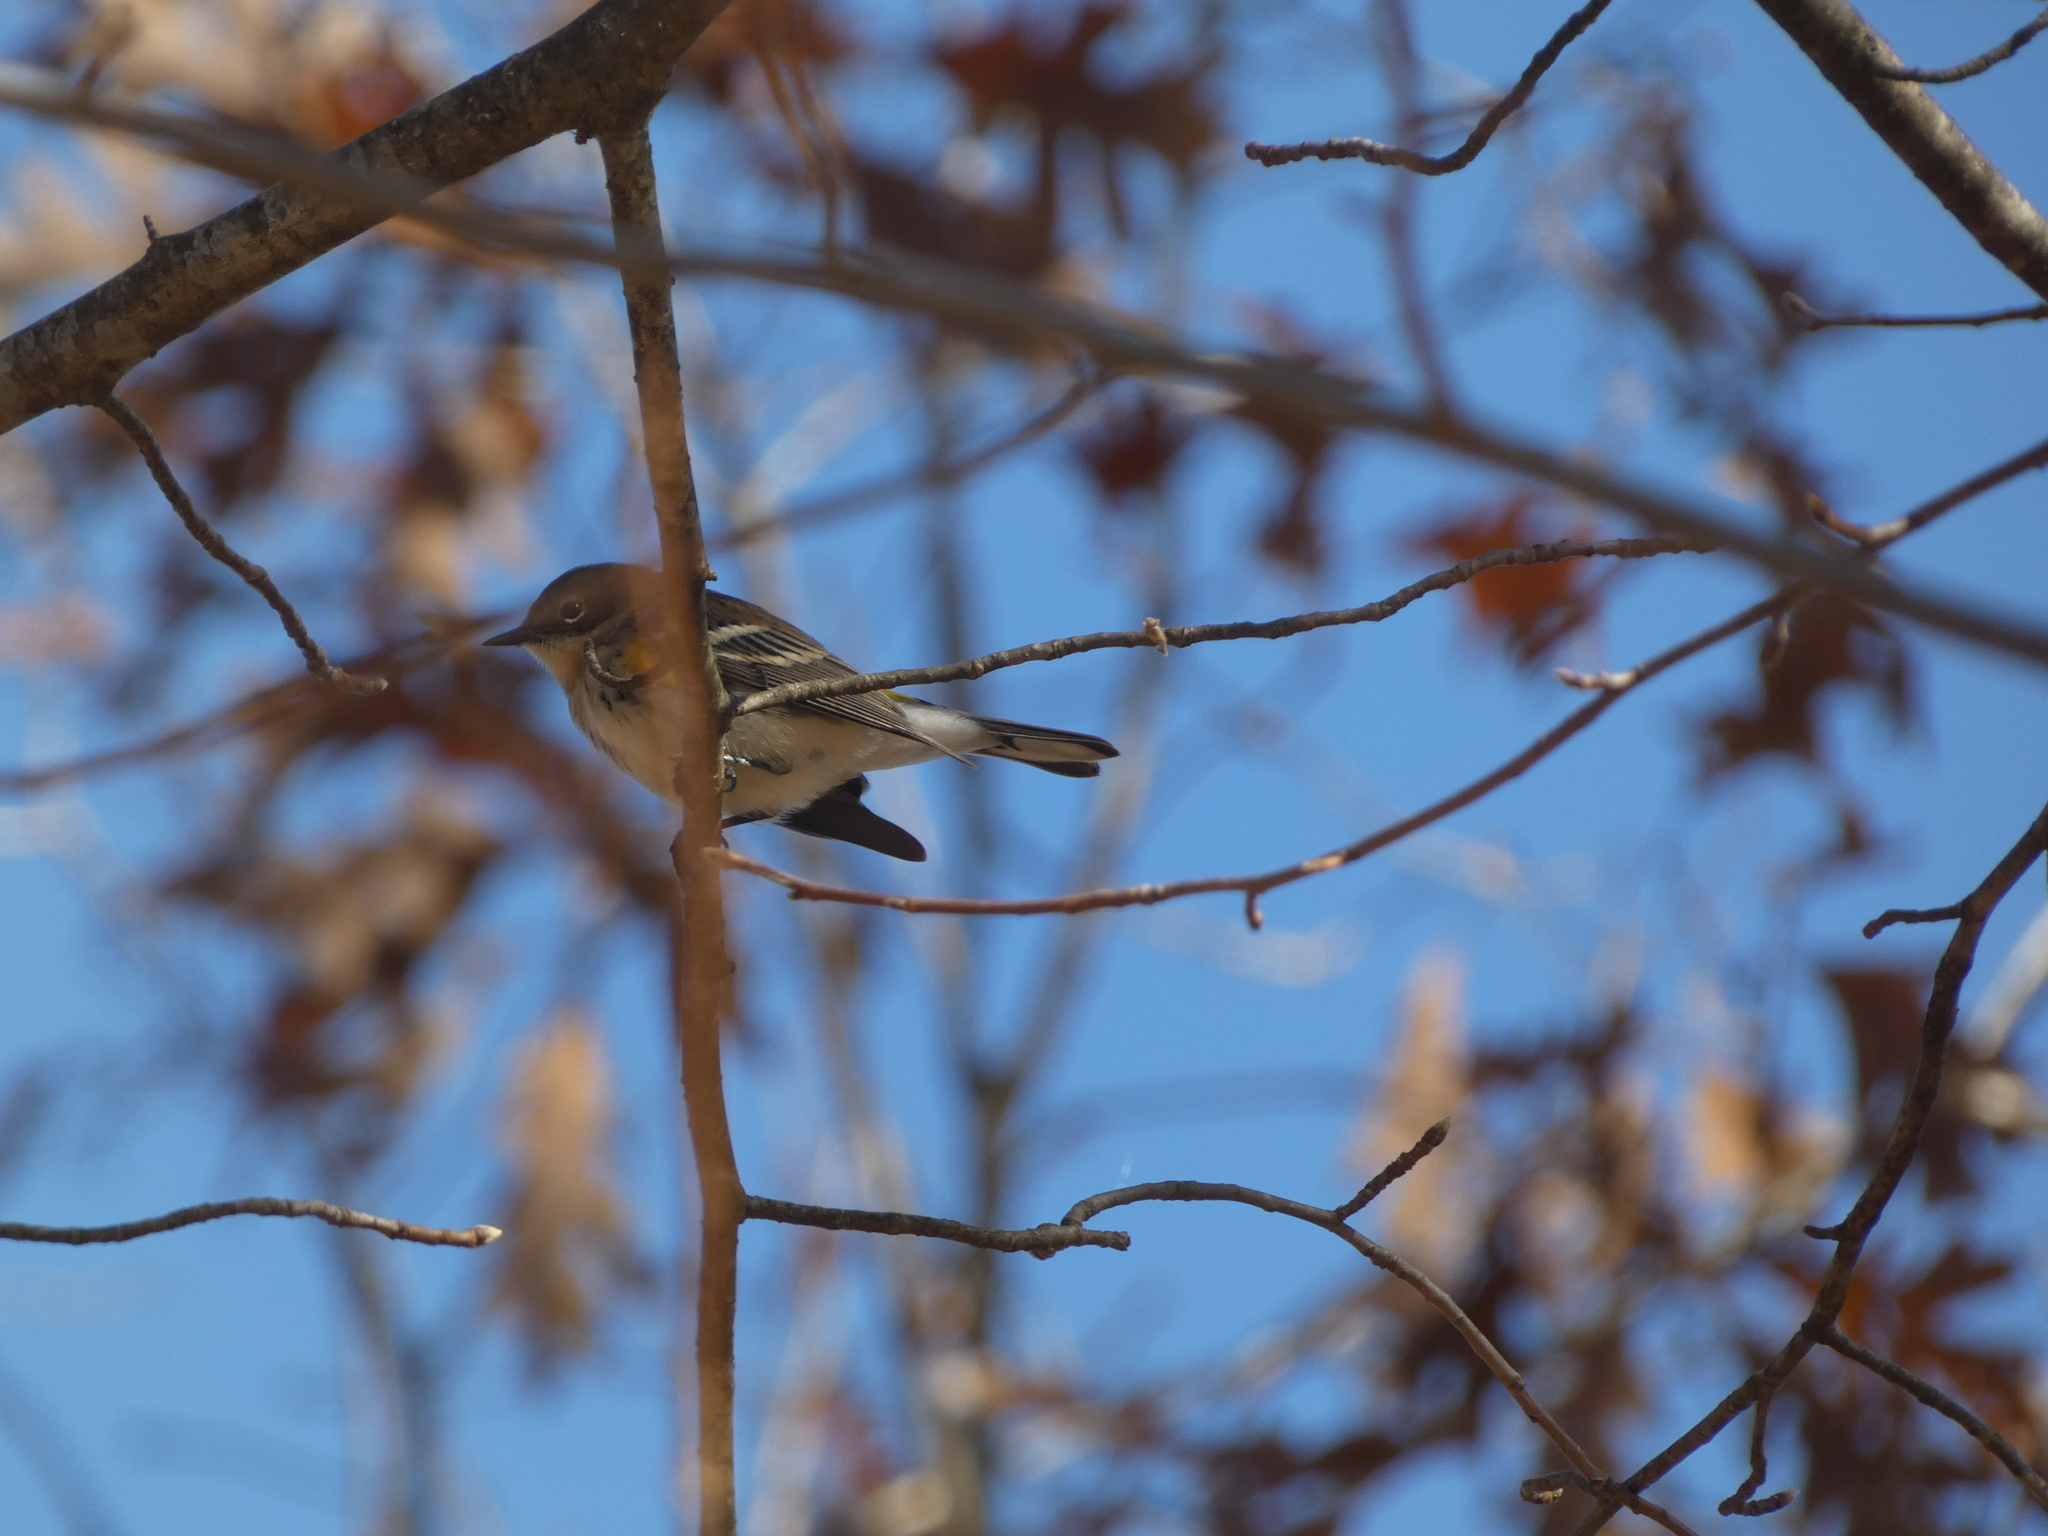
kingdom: Animalia
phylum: Chordata
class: Aves
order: Passeriformes
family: Parulidae
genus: Setophaga
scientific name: Setophaga coronata
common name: Myrtle warbler
